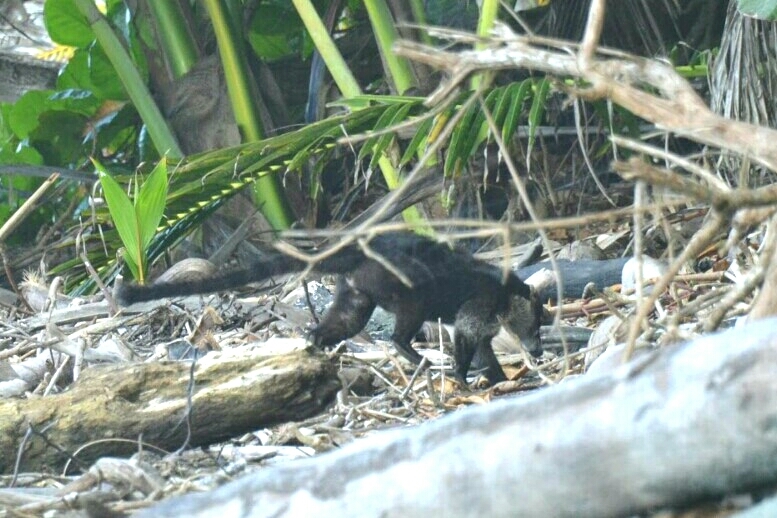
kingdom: Animalia
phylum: Chordata
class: Mammalia
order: Carnivora
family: Procyonidae
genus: Nasua
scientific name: Nasua narica
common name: White-nosed coati
